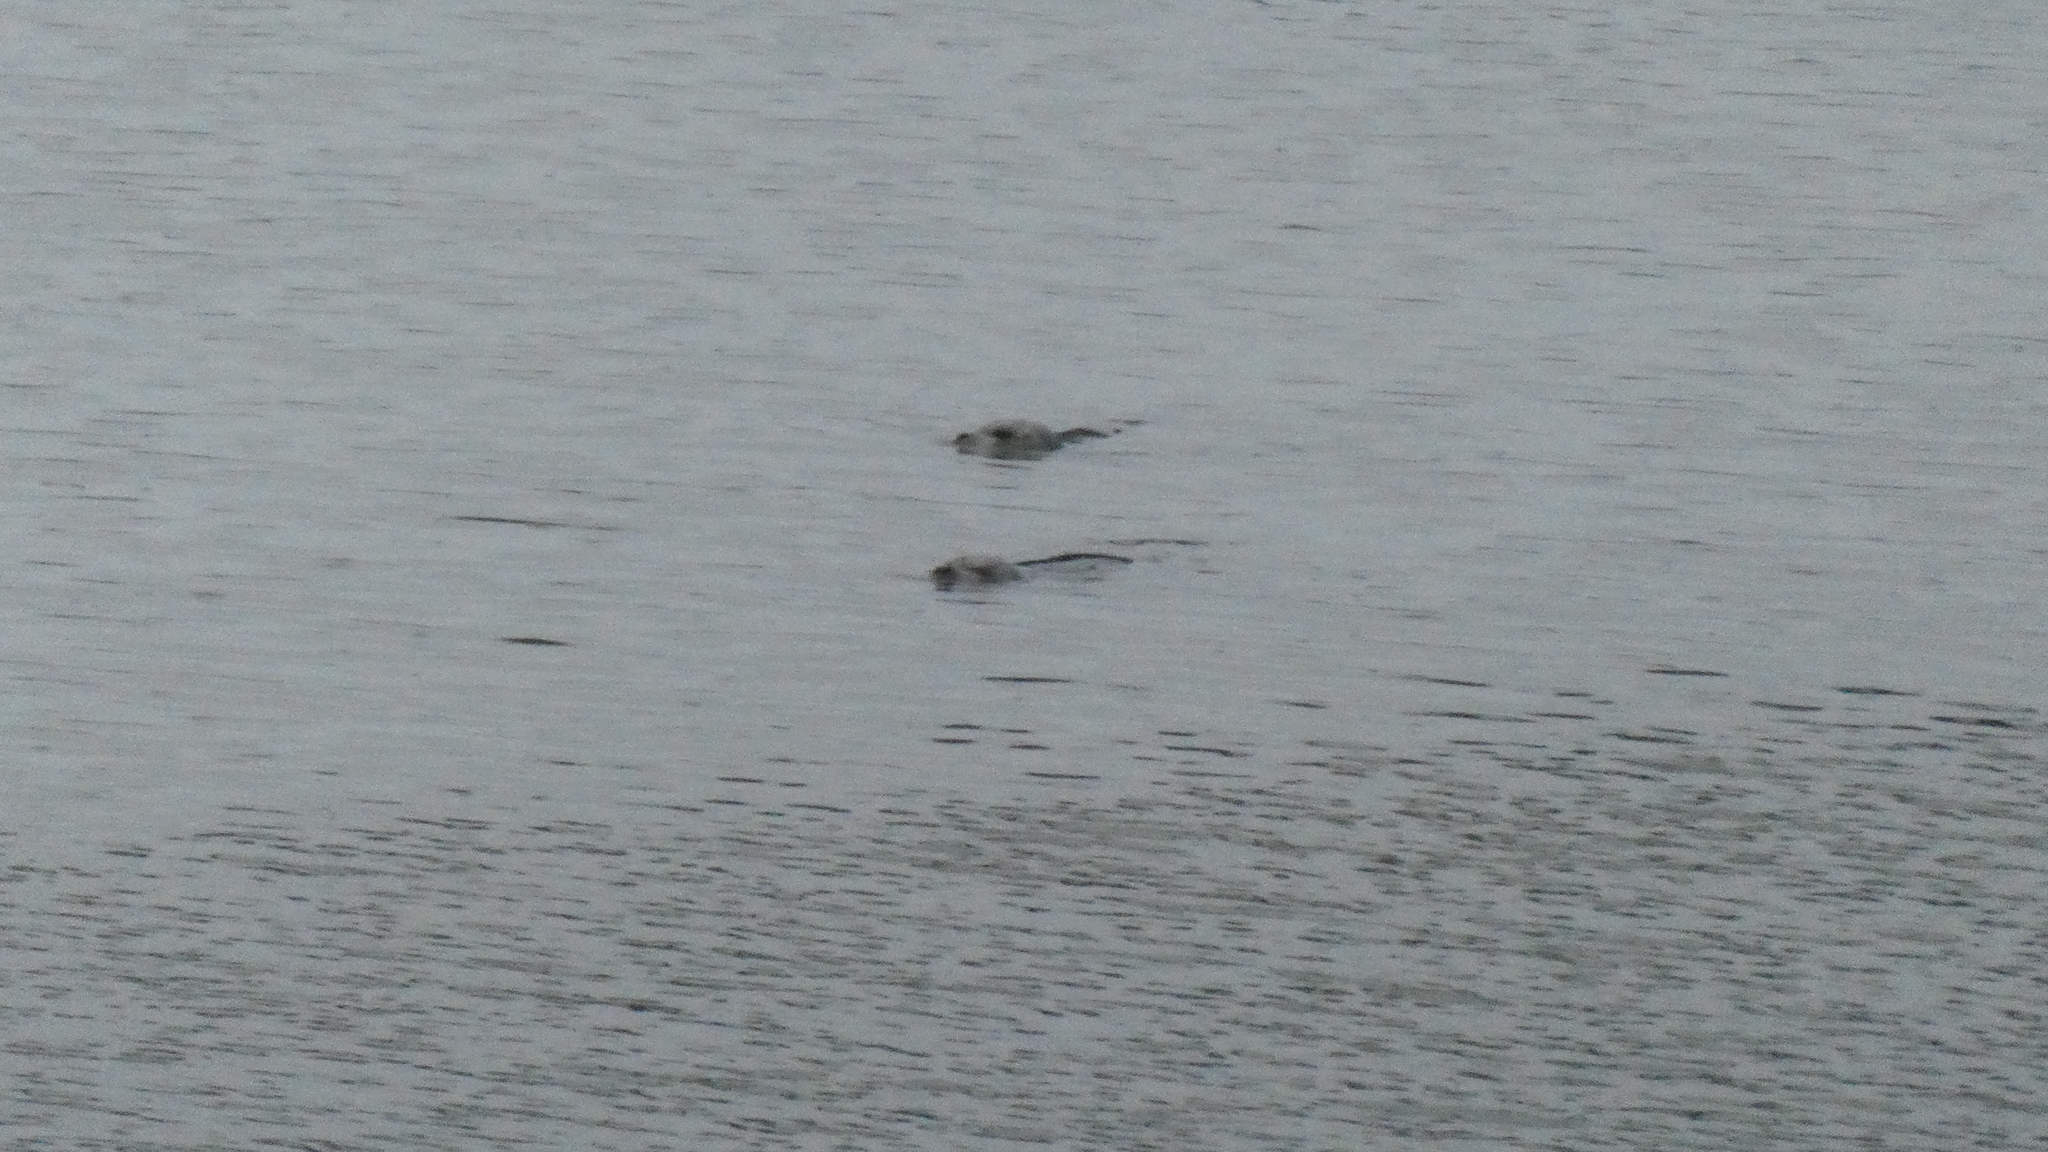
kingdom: Animalia
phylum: Chordata
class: Mammalia
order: Carnivora
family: Phocidae
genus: Phoca
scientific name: Phoca vitulina
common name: Harbor seal
